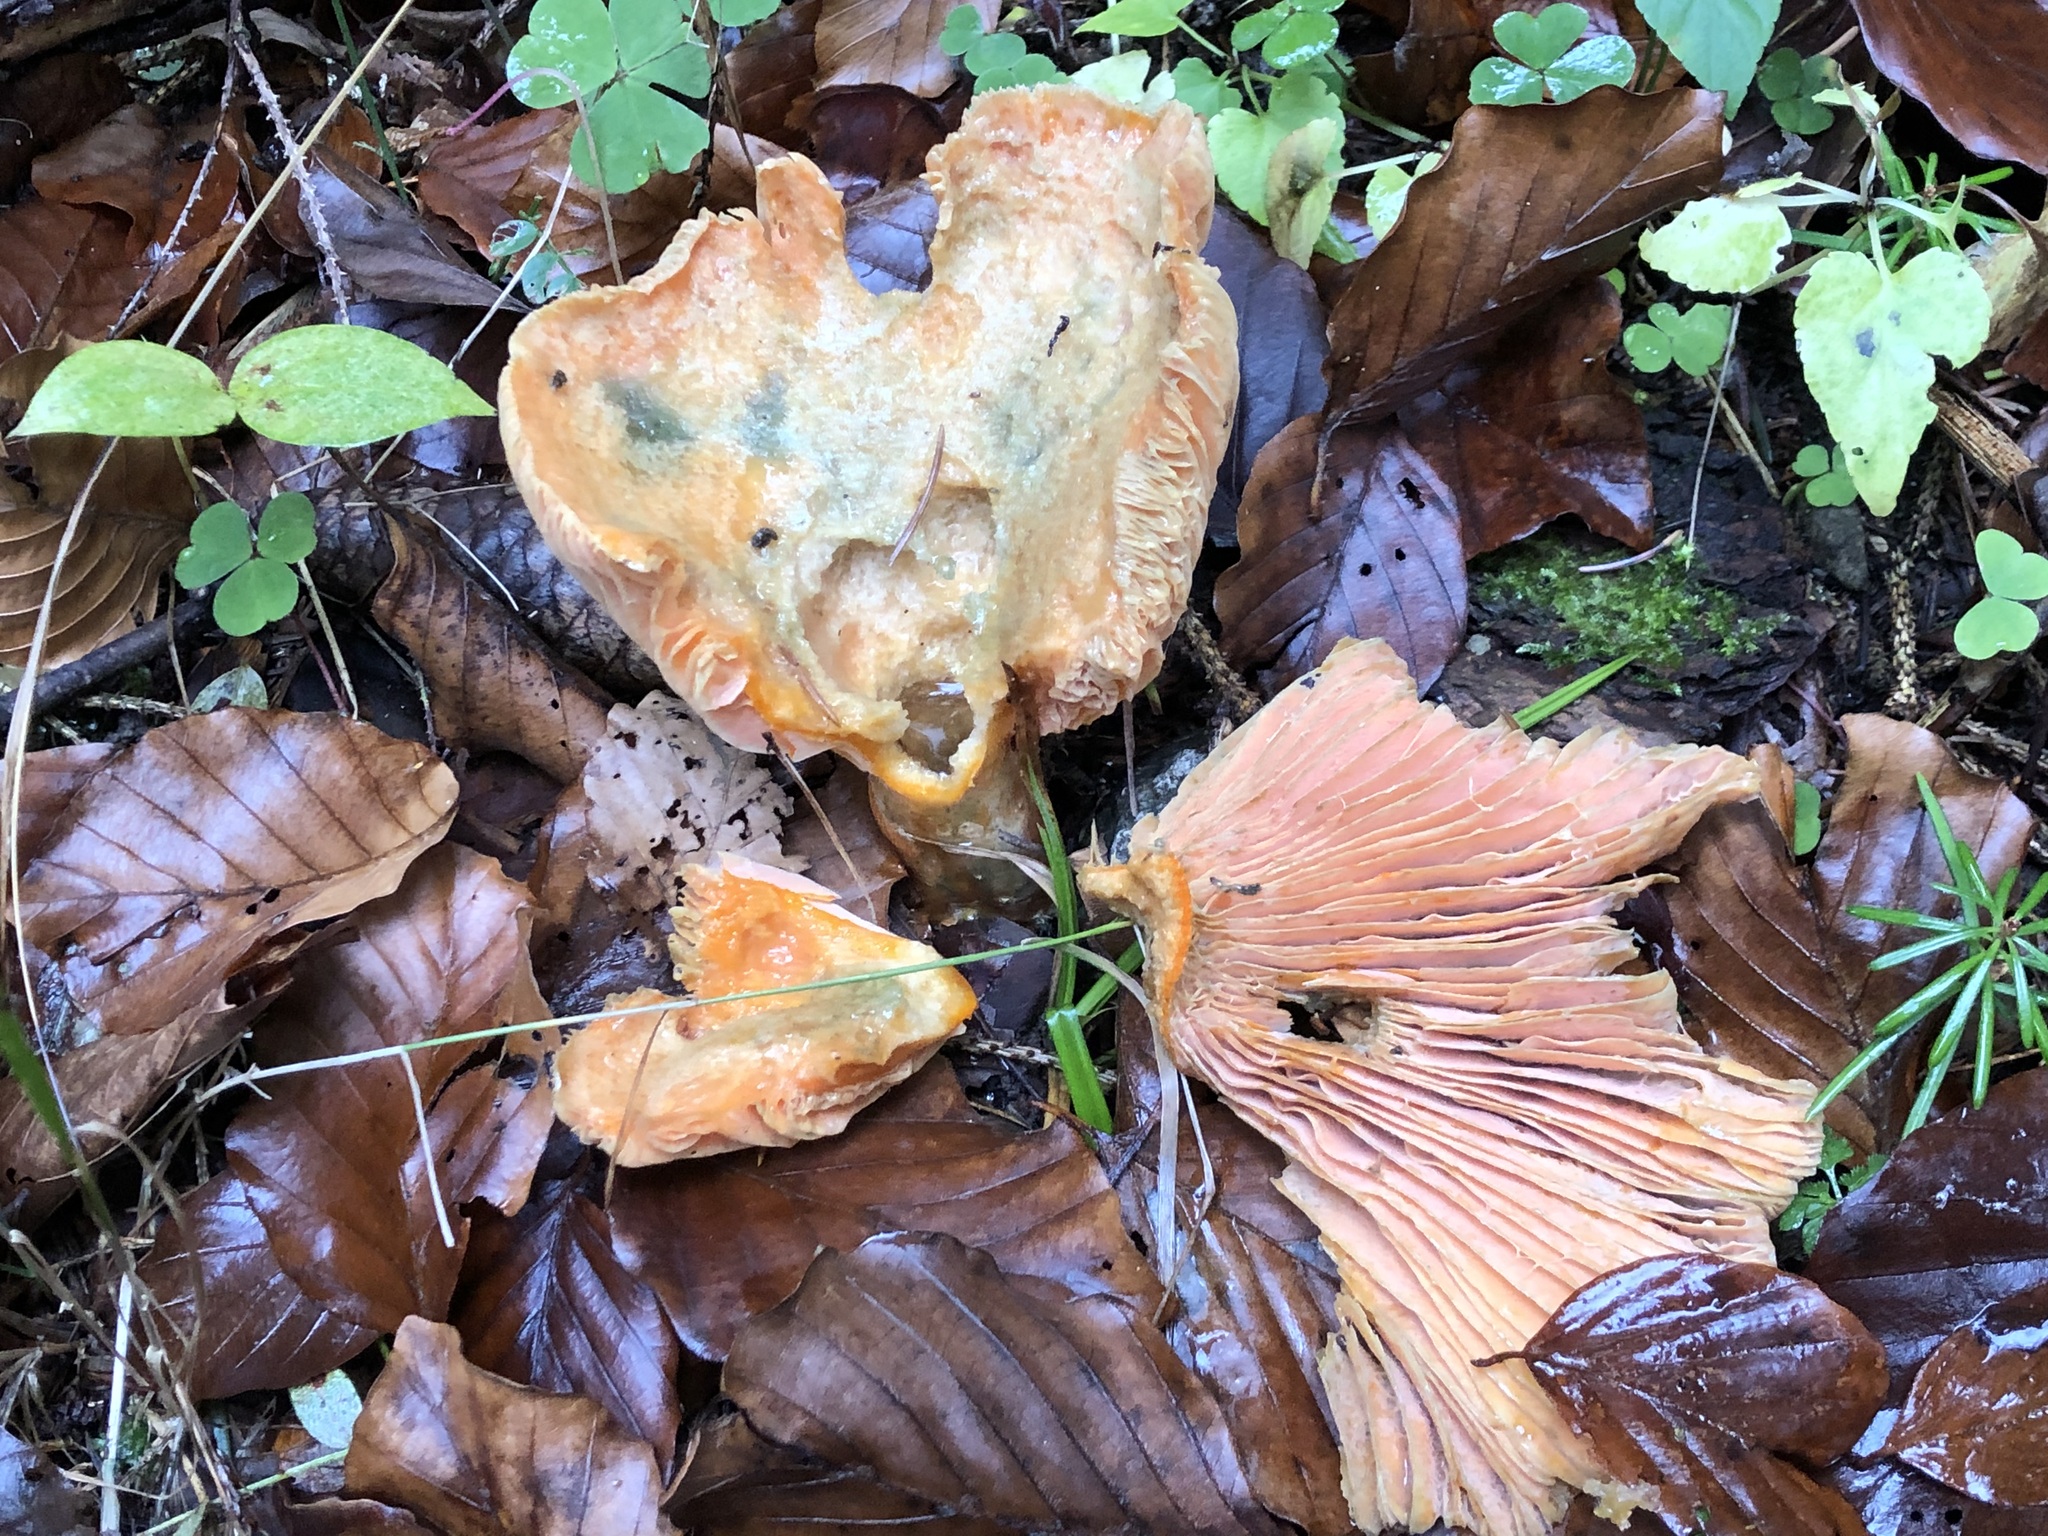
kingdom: Fungi
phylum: Basidiomycota
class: Agaricomycetes
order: Russulales
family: Russulaceae
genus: Lactarius
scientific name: Lactarius salmonicolor
